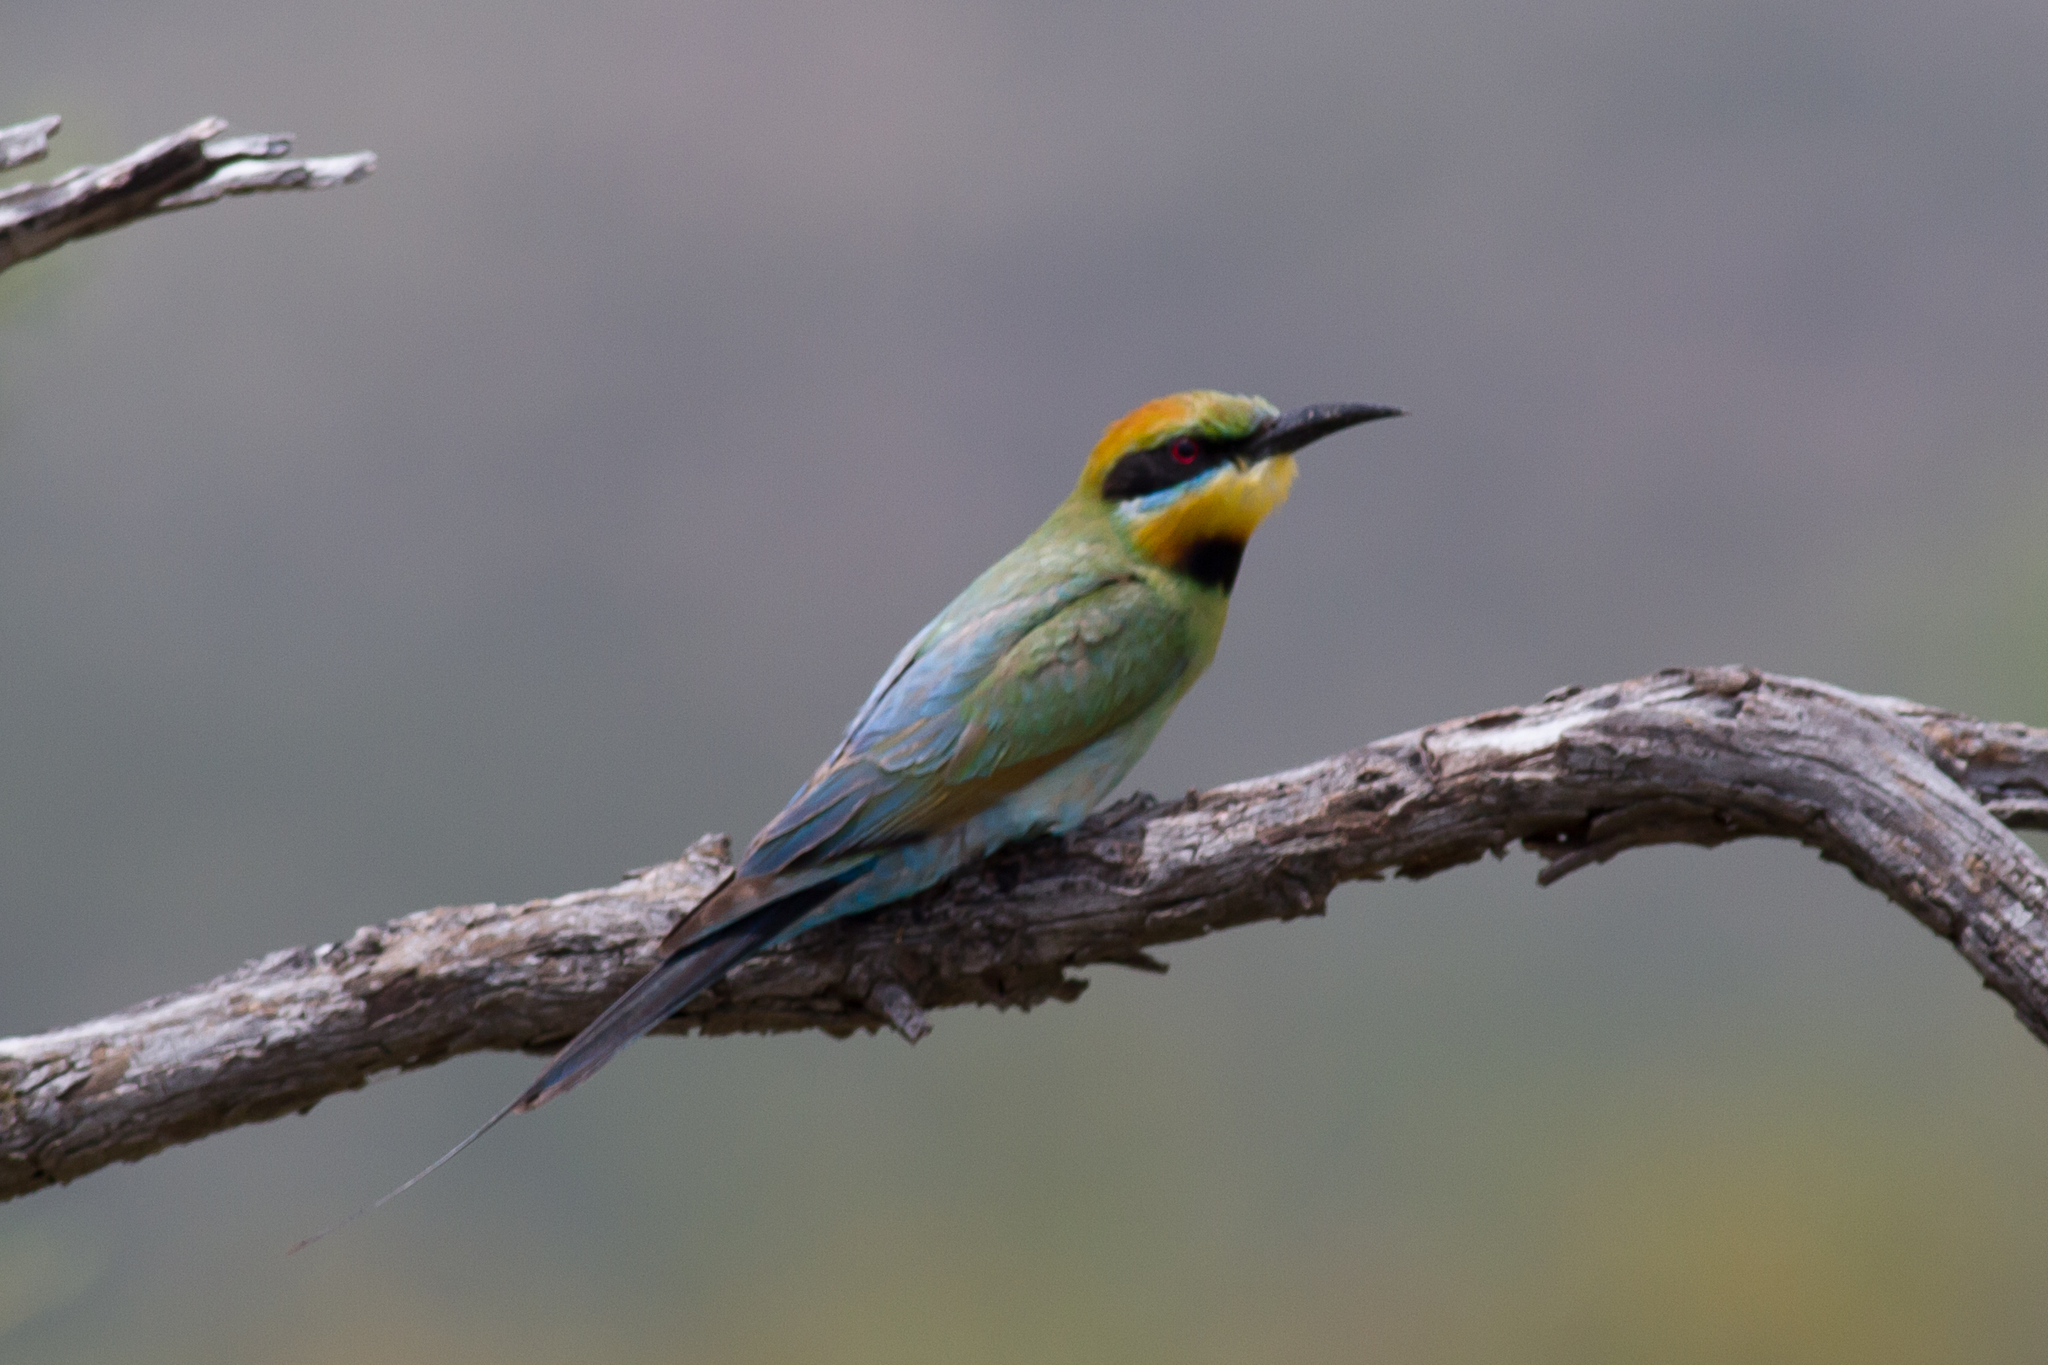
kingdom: Animalia
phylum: Chordata
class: Aves
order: Coraciiformes
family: Meropidae
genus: Merops
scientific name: Merops ornatus
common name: Rainbow bee-eater
